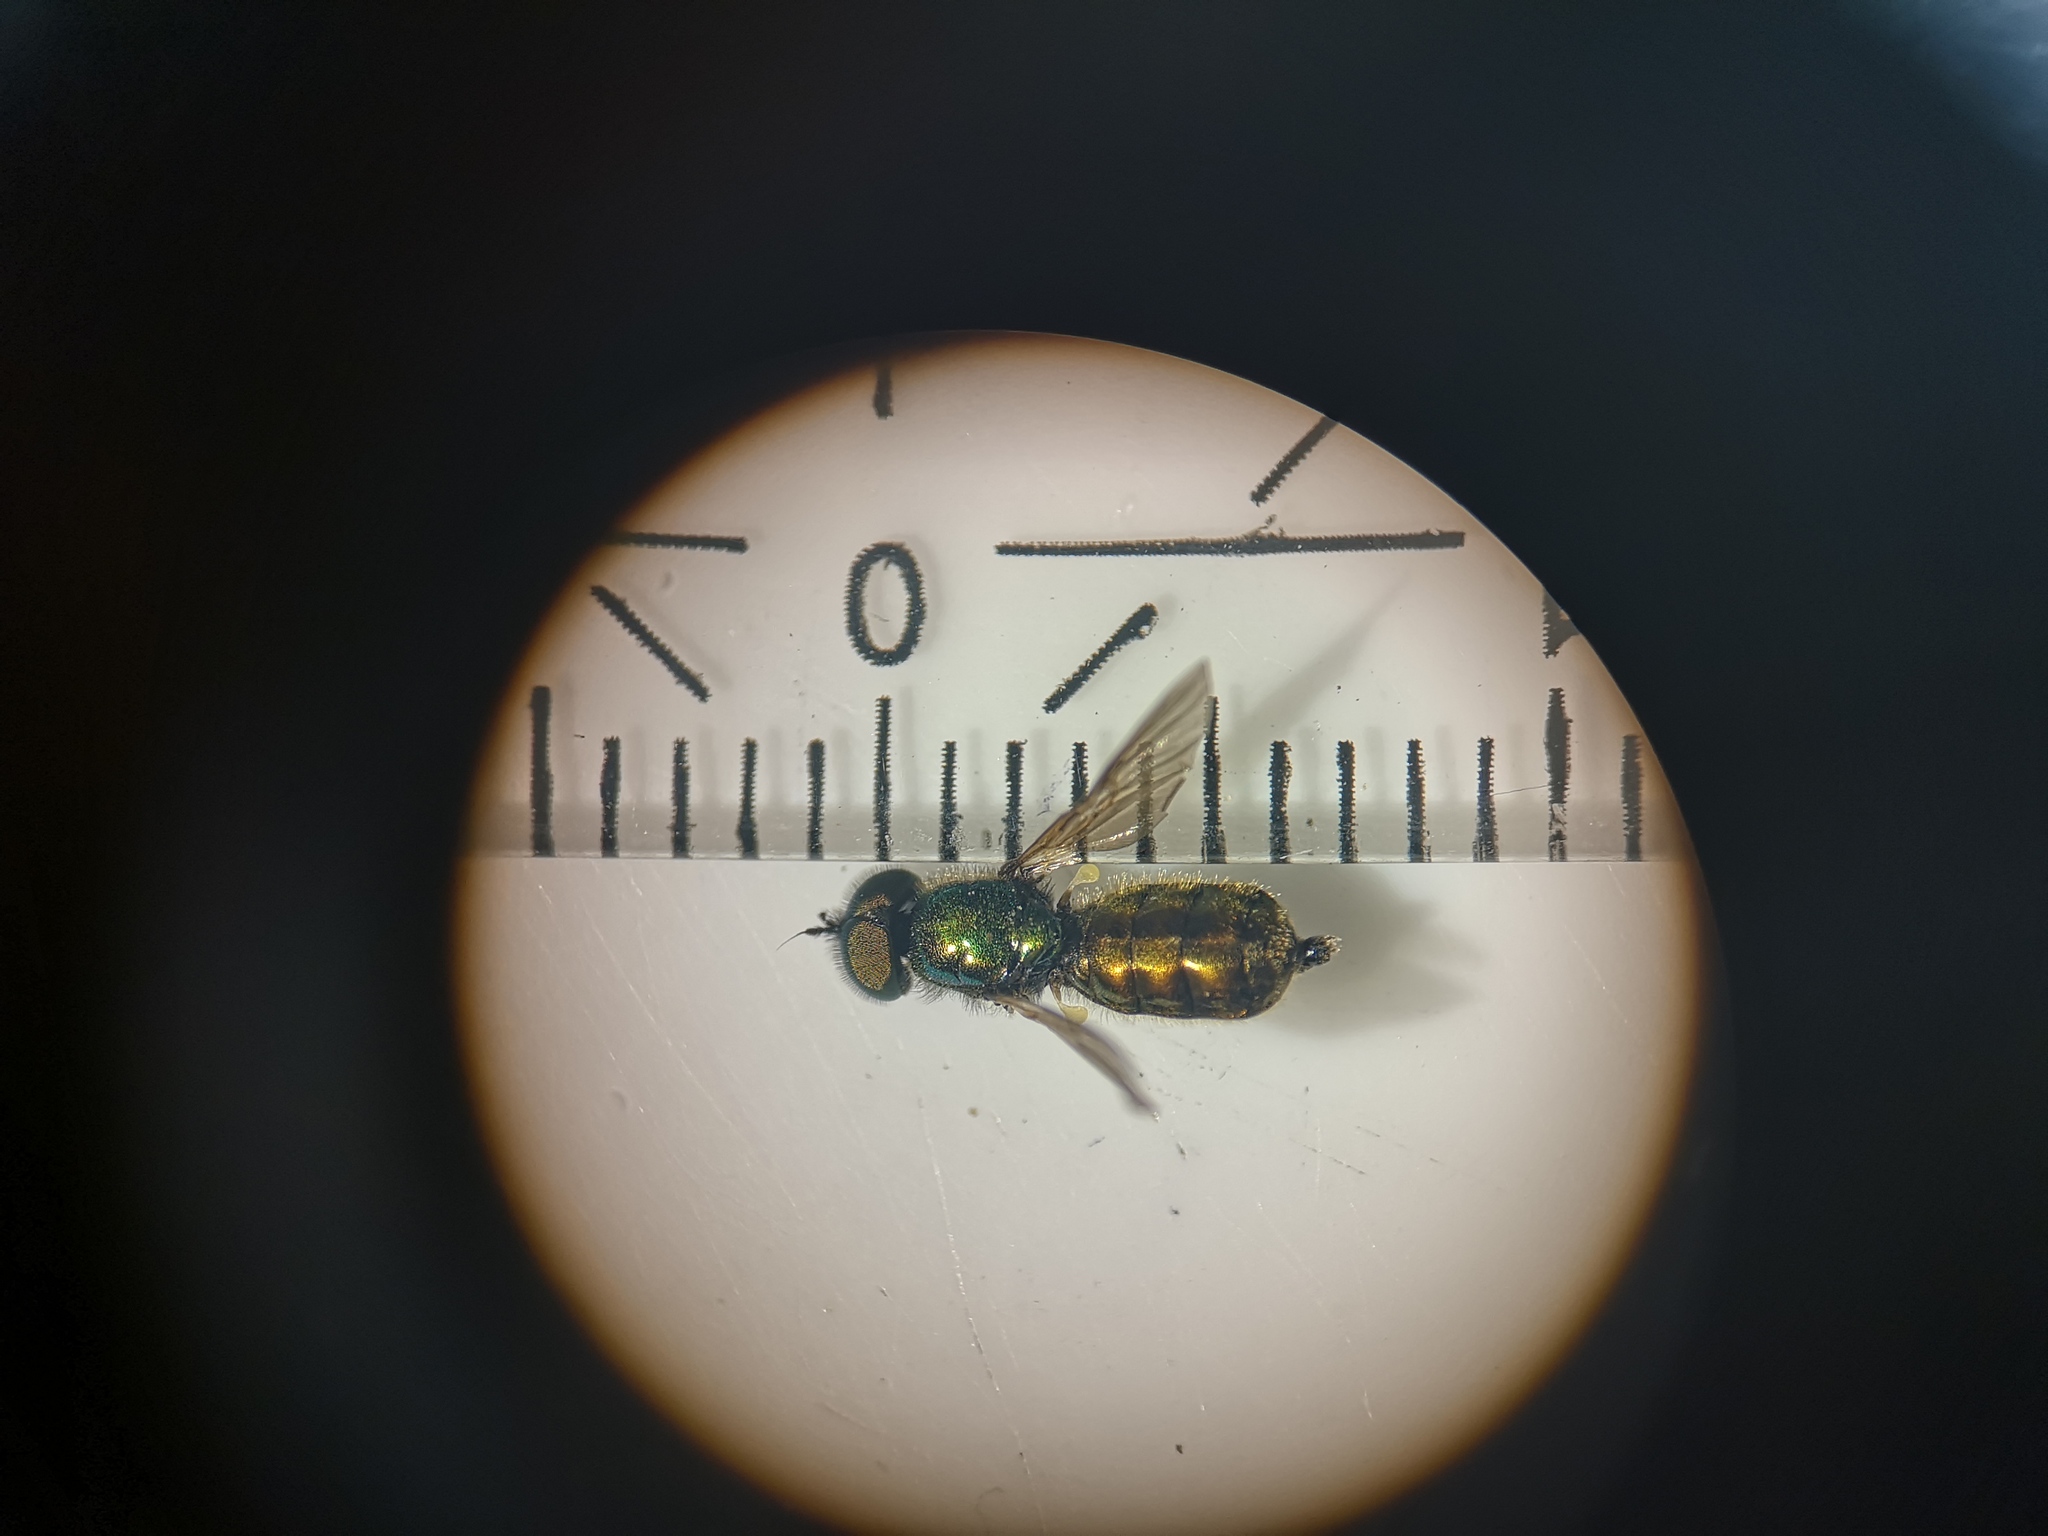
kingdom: Animalia
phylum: Arthropoda
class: Insecta
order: Diptera
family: Stratiomyidae
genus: Chloromyia
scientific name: Chloromyia formosa
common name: Soldier fly
